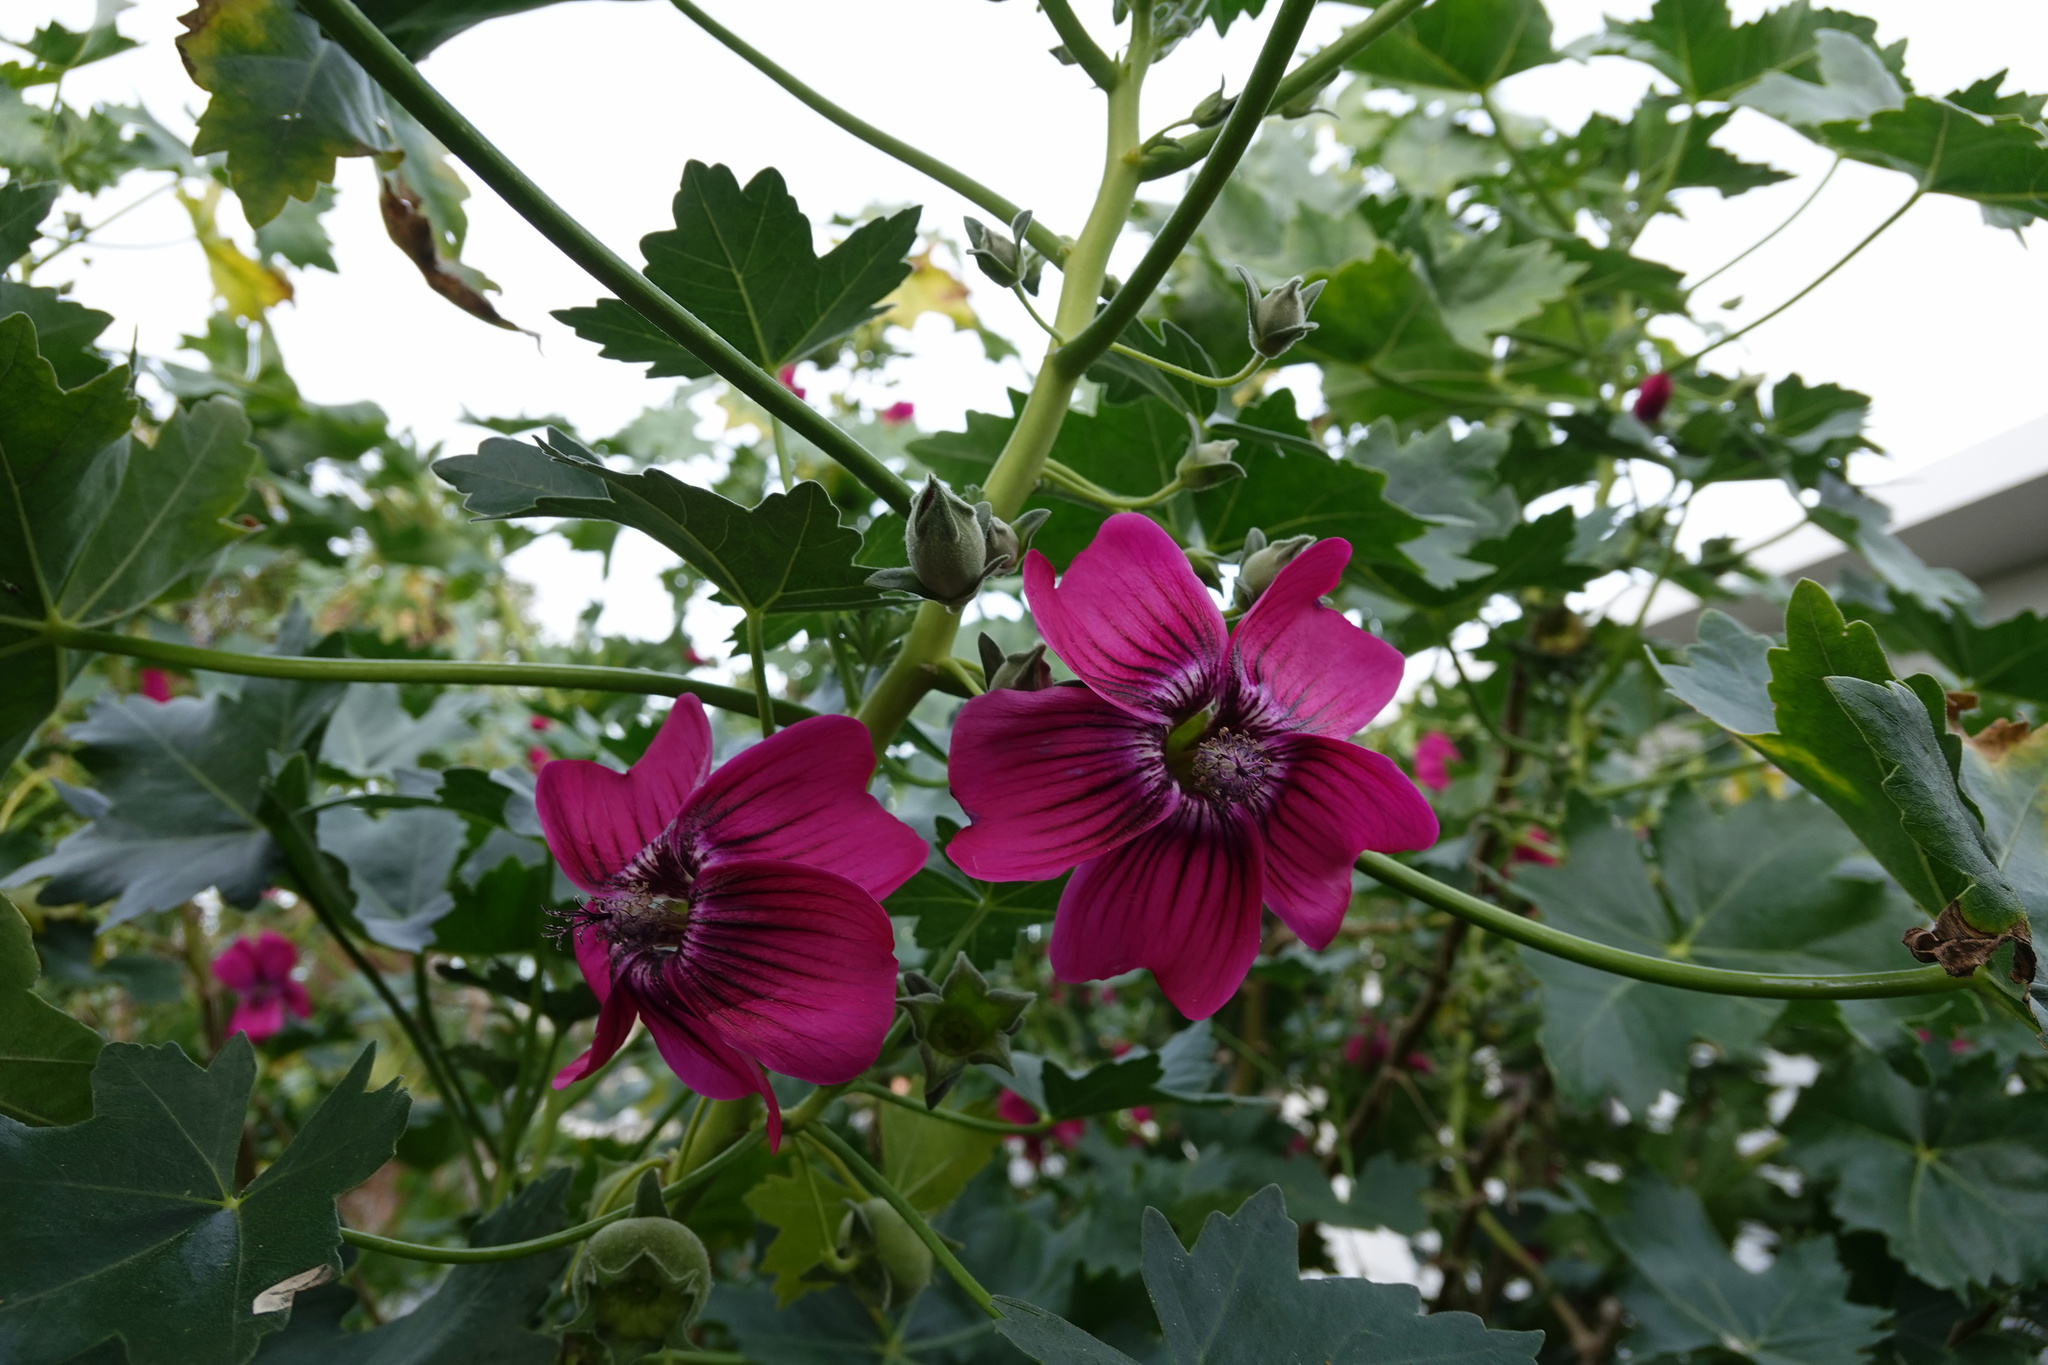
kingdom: Plantae
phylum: Tracheophyta
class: Magnoliopsida
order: Malvales
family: Malvaceae
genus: Malva
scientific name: Malva assurgentiflora
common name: Island mallow
